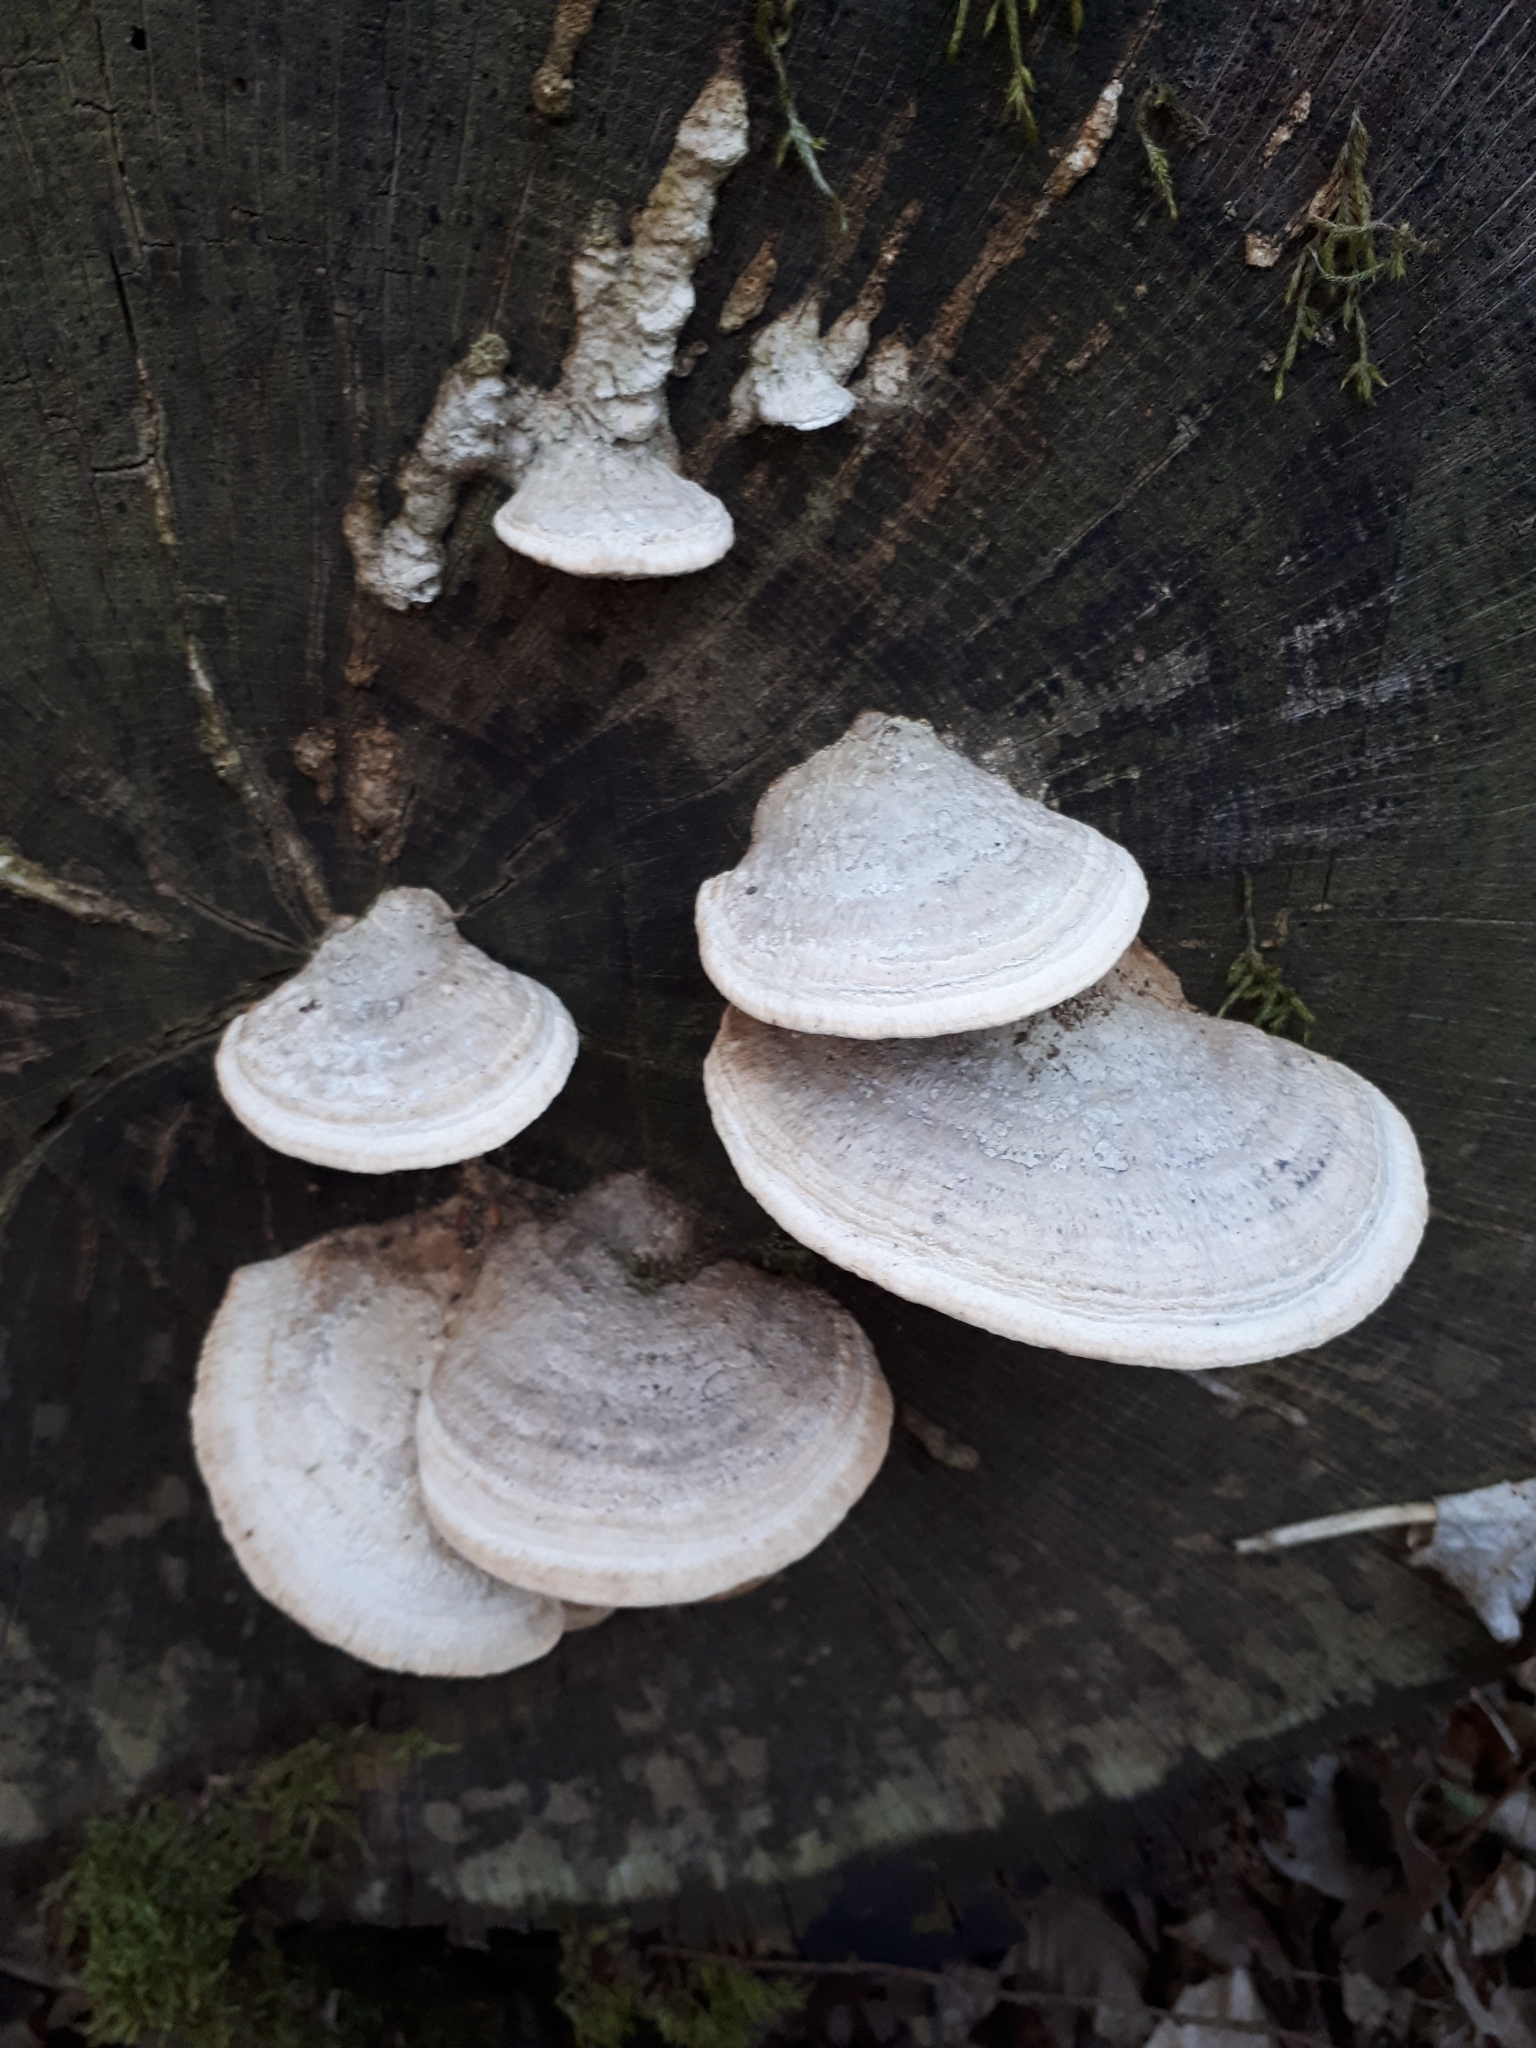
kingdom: Fungi
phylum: Basidiomycota
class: Agaricomycetes
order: Polyporales
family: Fomitopsidaceae
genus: Fomitopsis
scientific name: Fomitopsis
